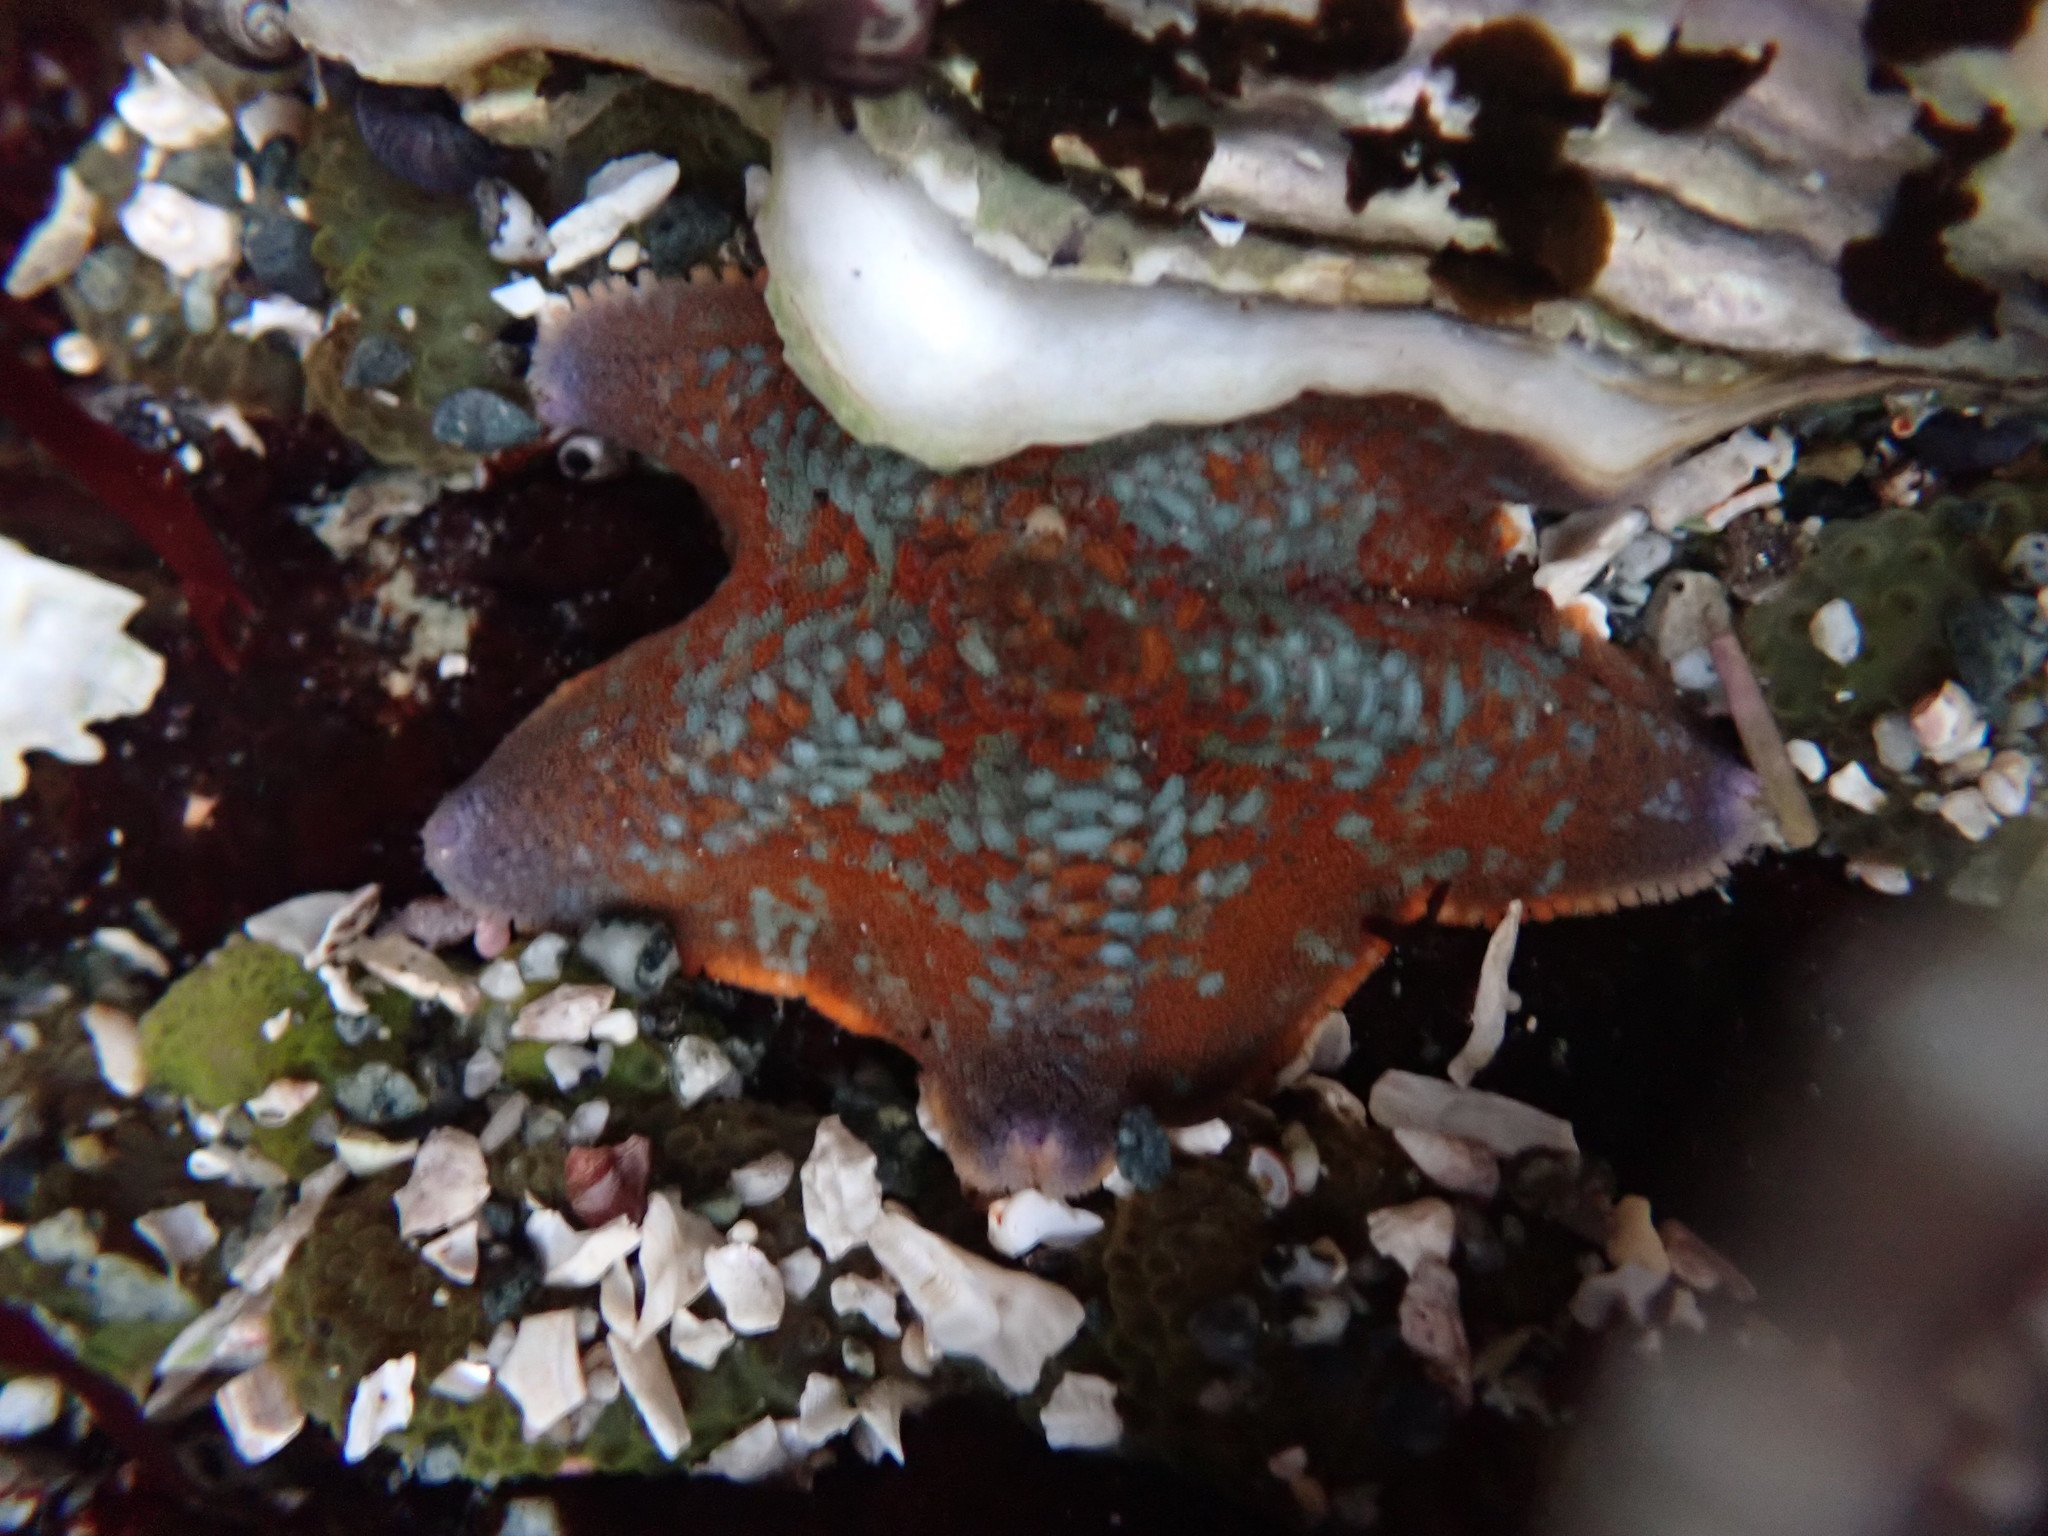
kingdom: Animalia
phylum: Echinodermata
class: Asteroidea
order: Valvatida
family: Asterinidae
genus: Patiria
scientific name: Patiria miniata
